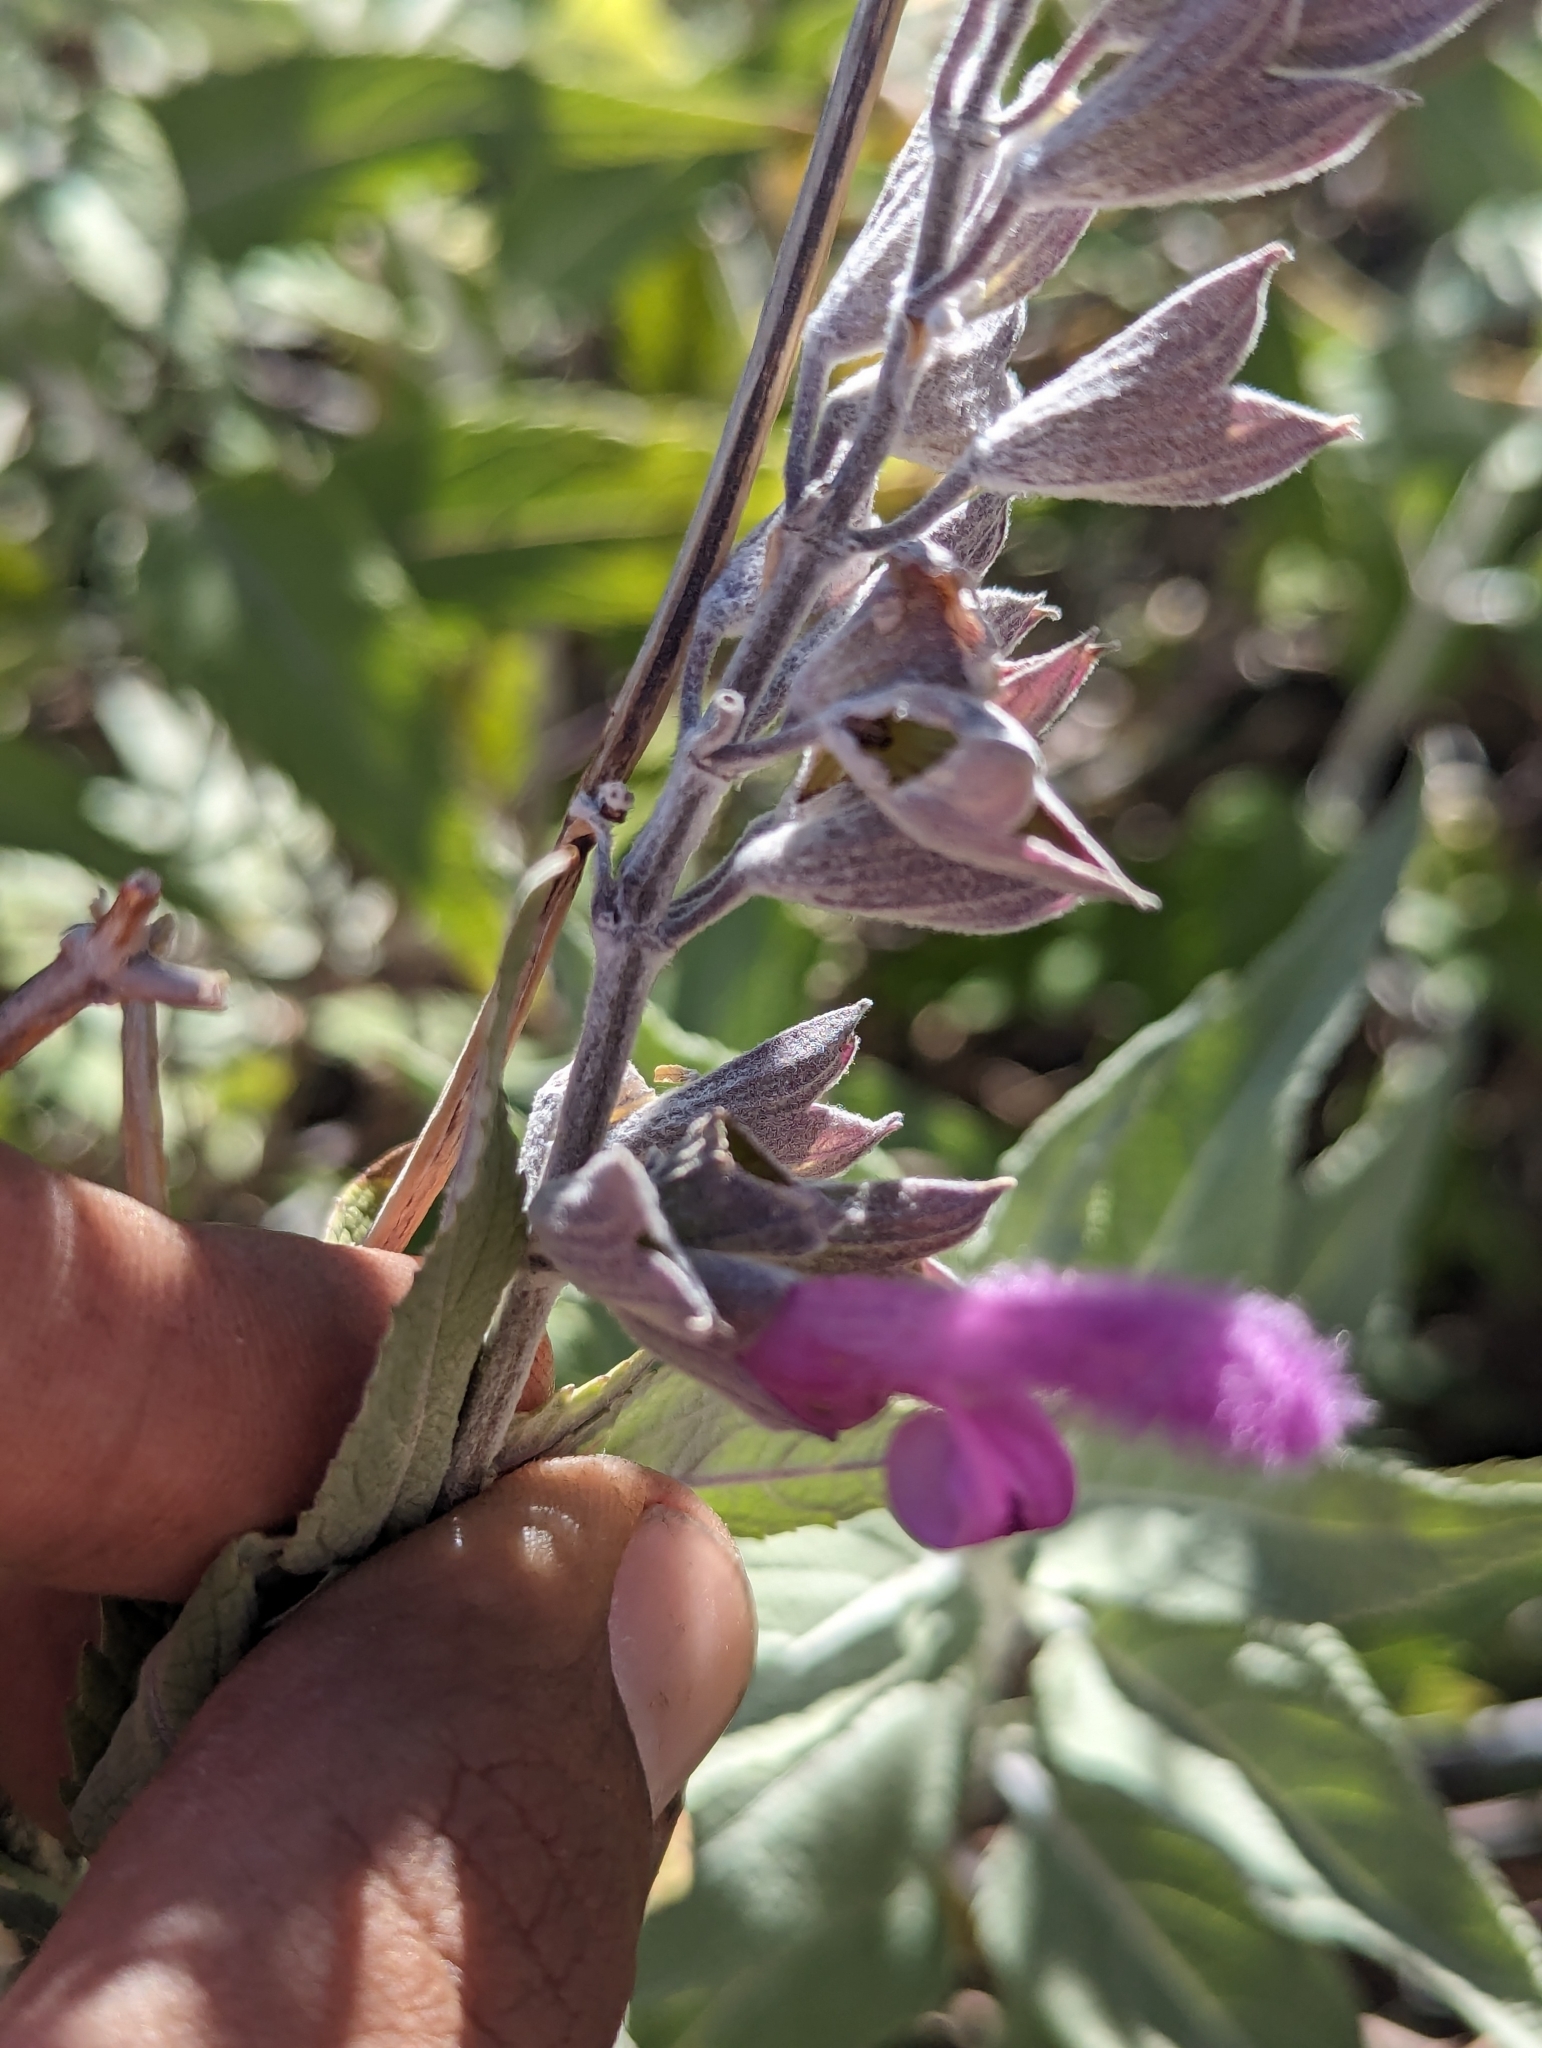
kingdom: Plantae
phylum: Tracheophyta
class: Magnoliopsida
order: Lamiales
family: Lamiaceae
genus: Salvia
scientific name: Salvia moranii
